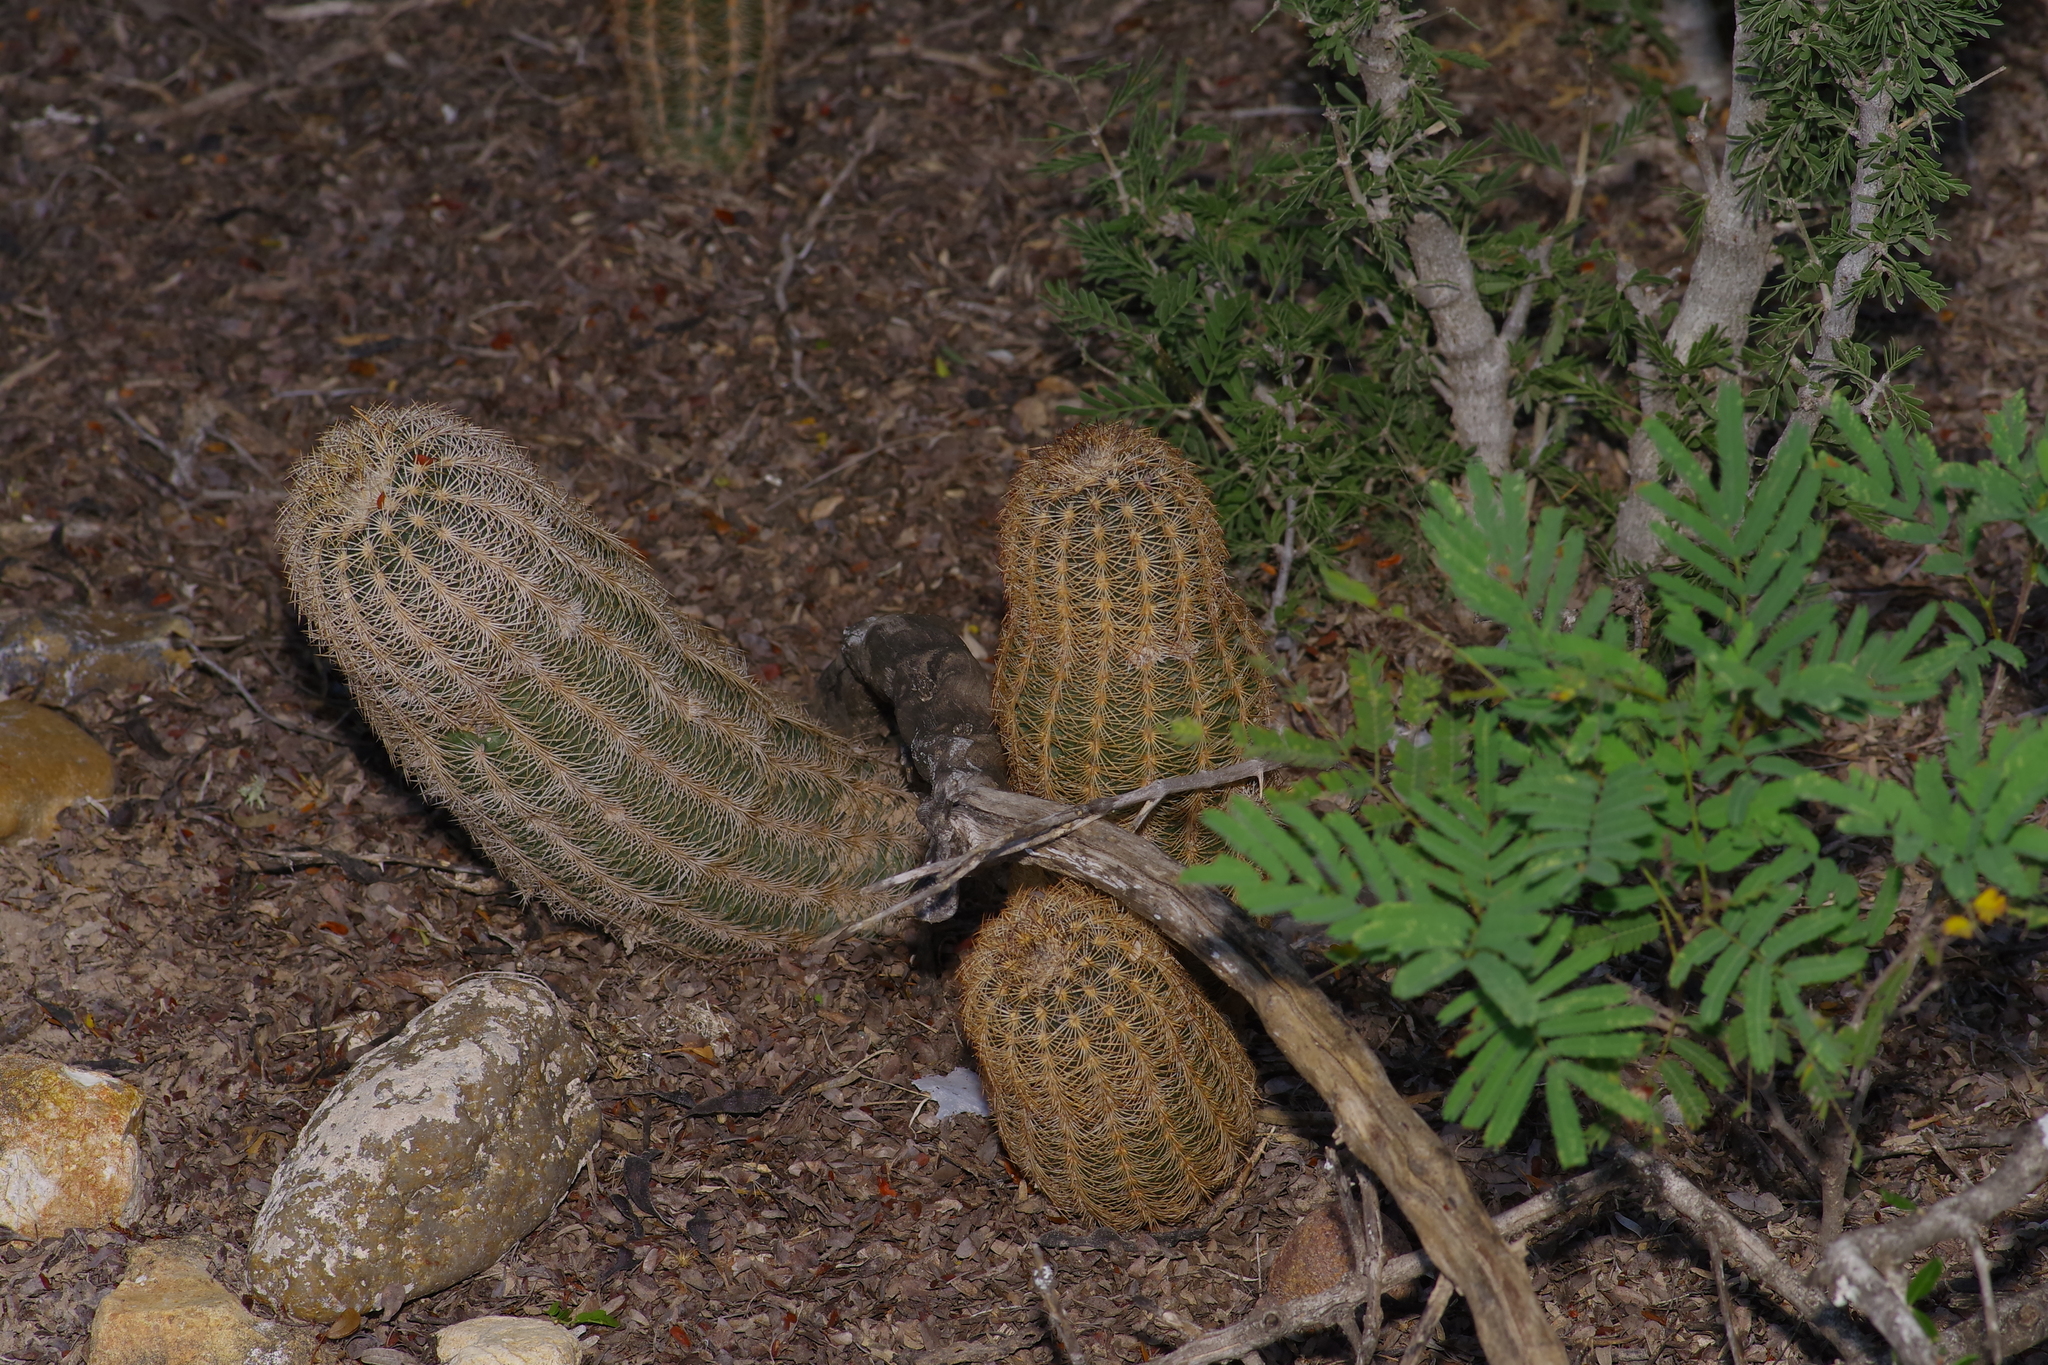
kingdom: Plantae
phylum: Tracheophyta
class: Magnoliopsida
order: Caryophyllales
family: Cactaceae
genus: Echinocereus
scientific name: Echinocereus reichenbachii
